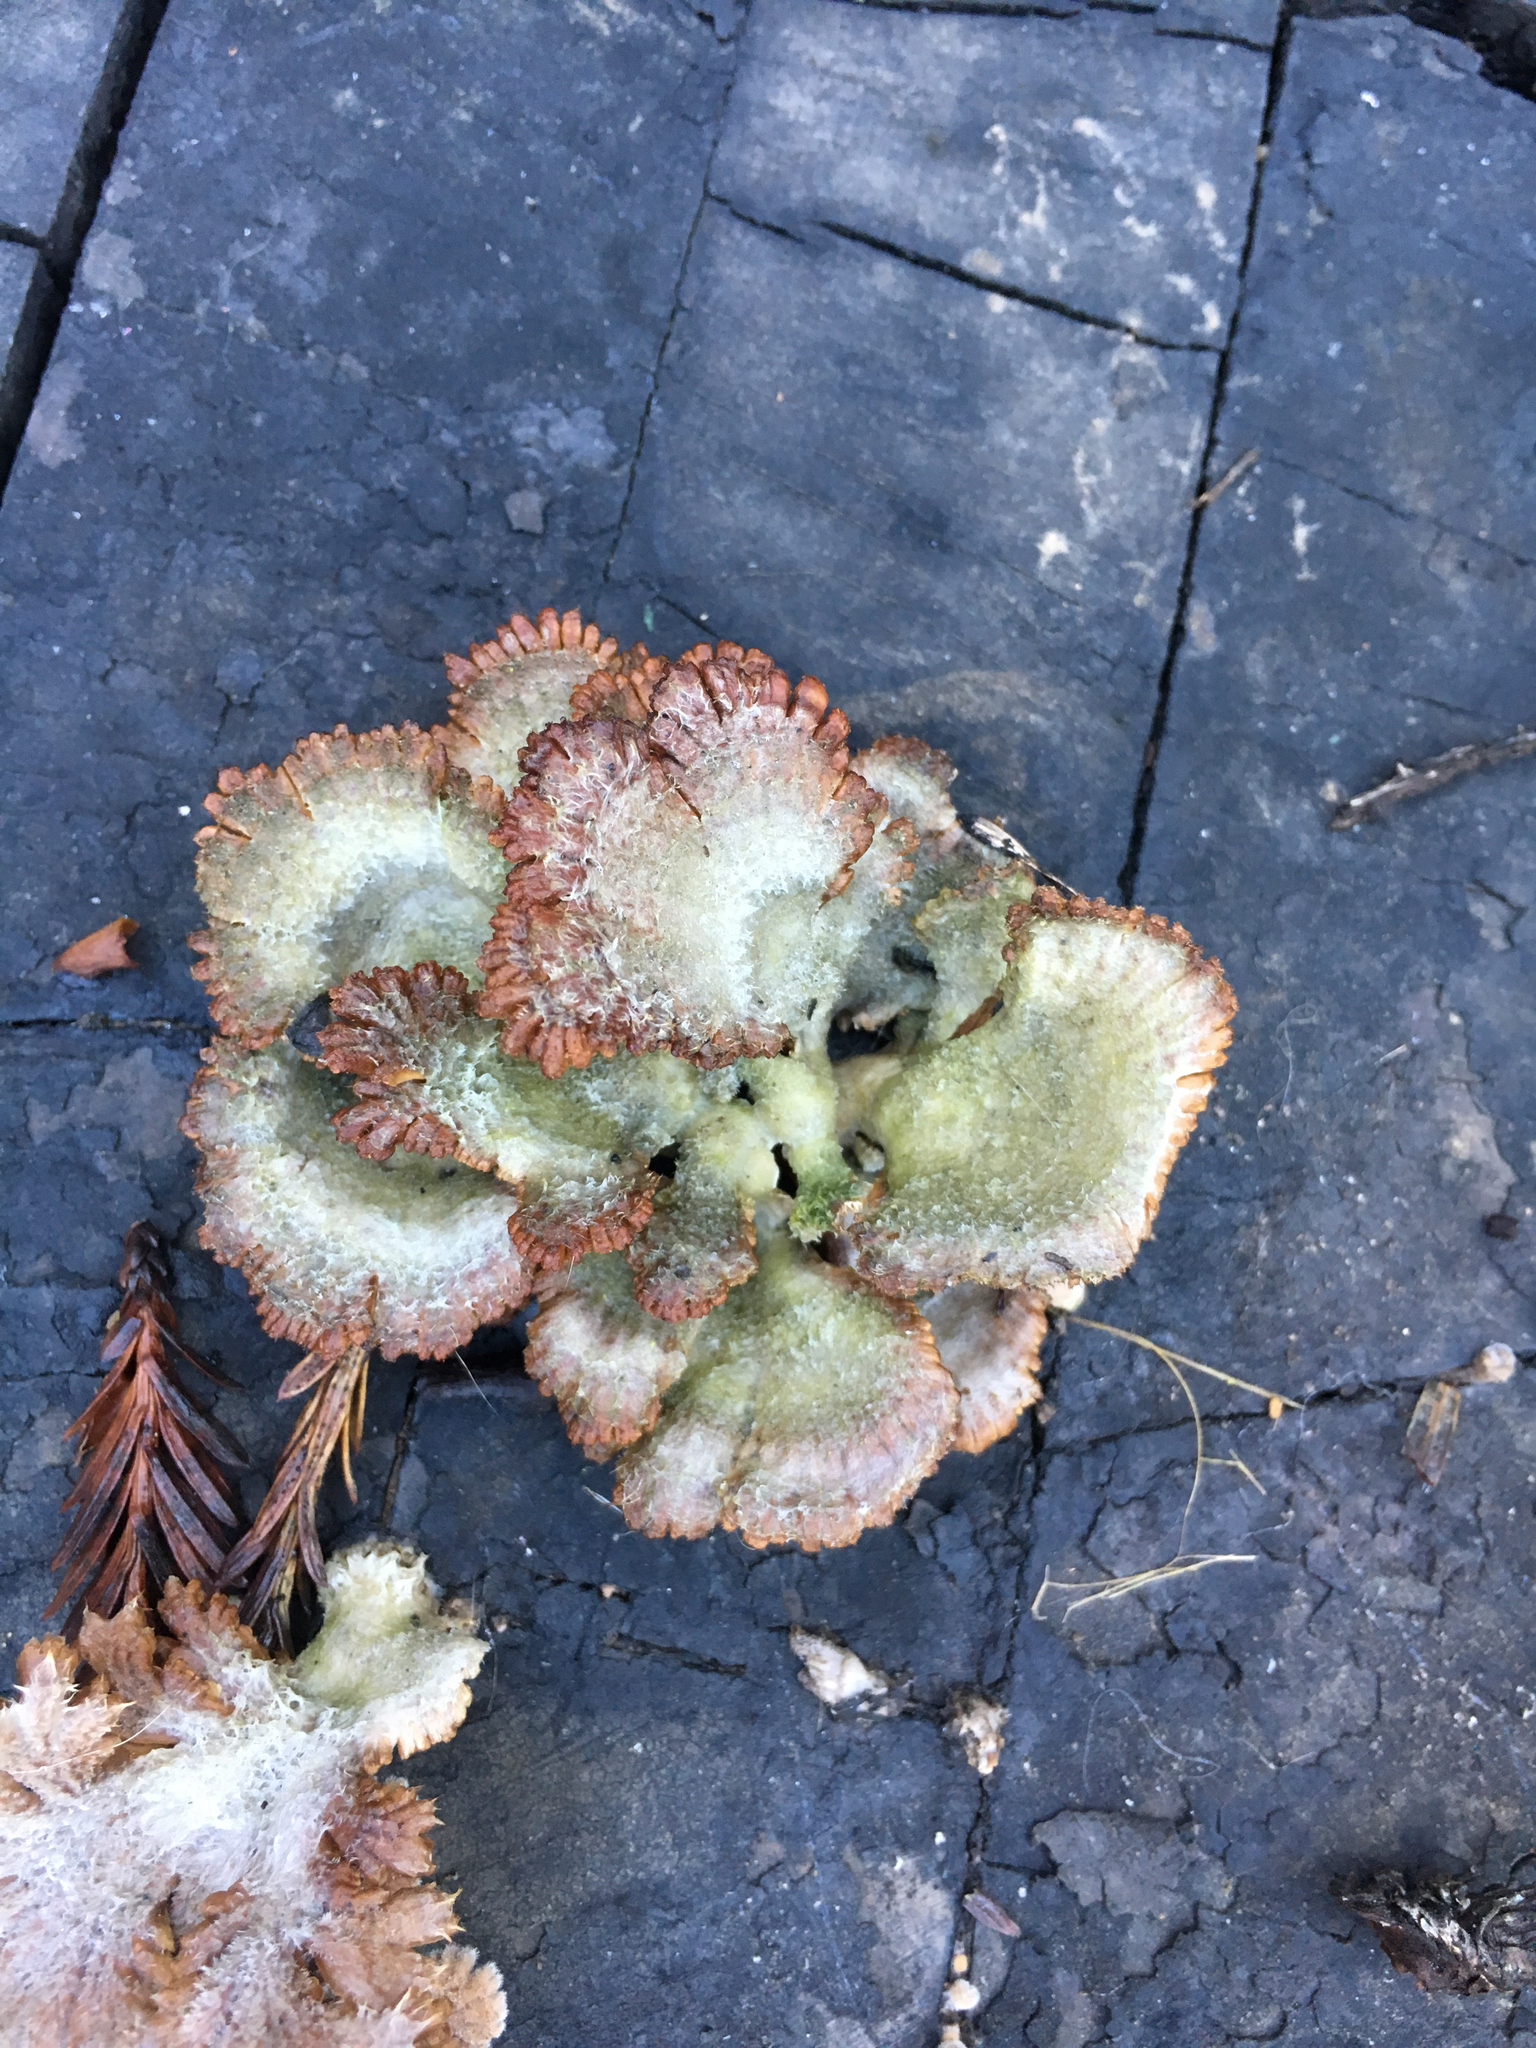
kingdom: Fungi
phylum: Basidiomycota
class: Agaricomycetes
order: Agaricales
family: Schizophyllaceae
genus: Schizophyllum
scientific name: Schizophyllum commune
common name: Common porecrust
